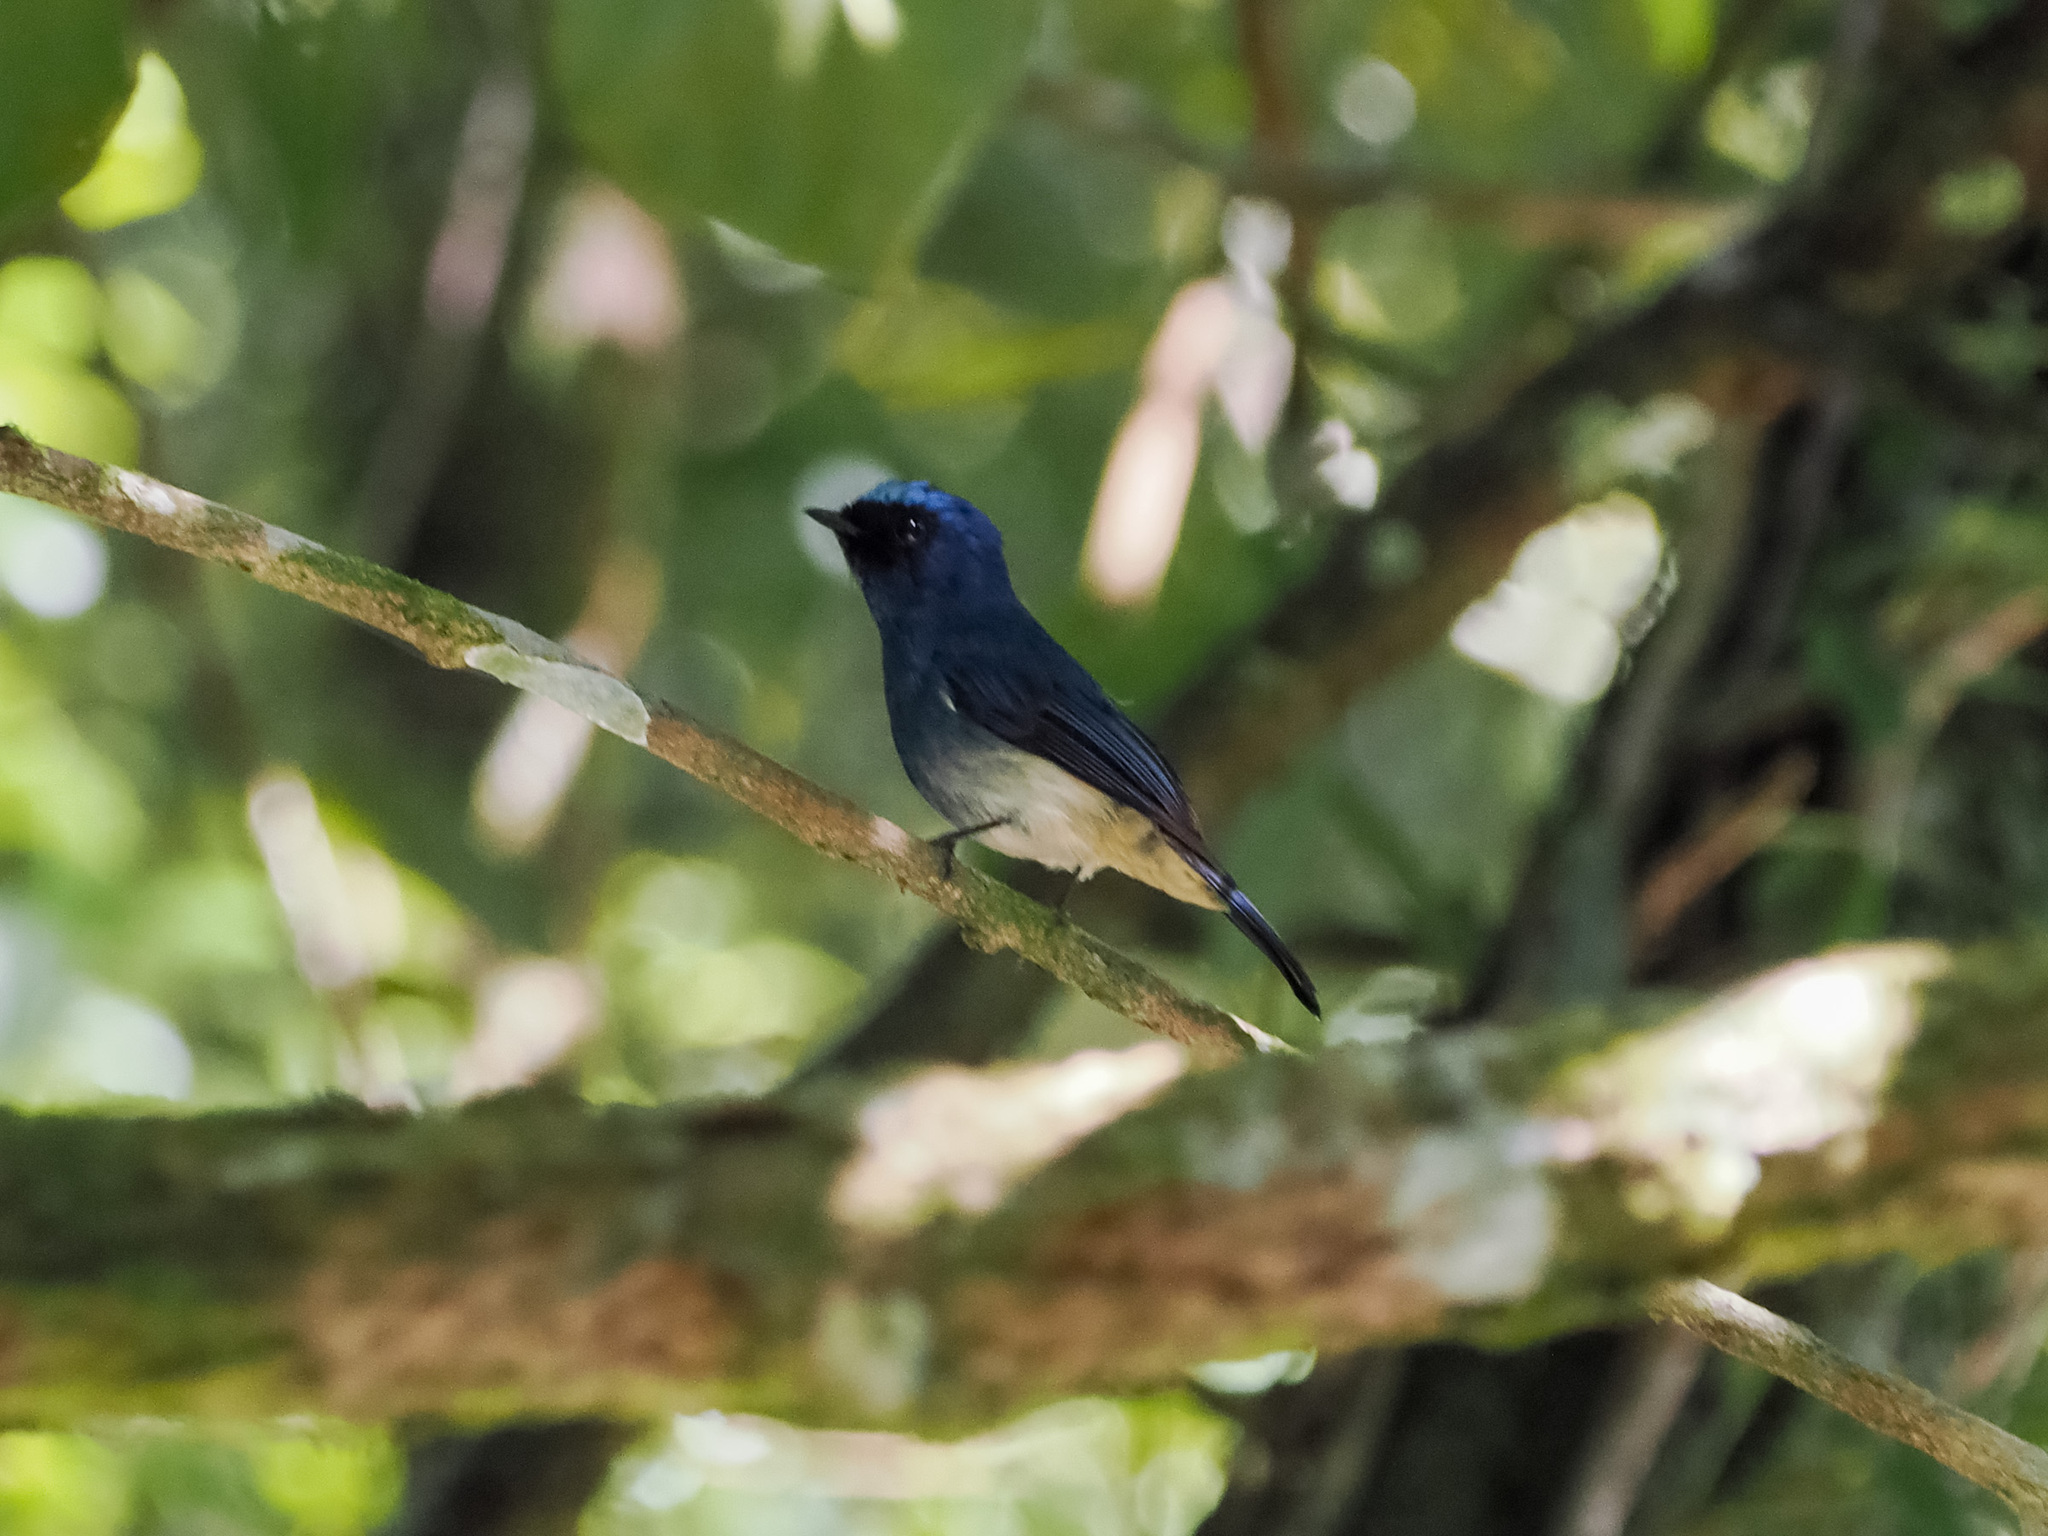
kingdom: Animalia
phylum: Chordata
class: Aves
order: Passeriformes
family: Muscicapidae
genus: Eumyias
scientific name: Eumyias indigo
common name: Indigo flycatcher
